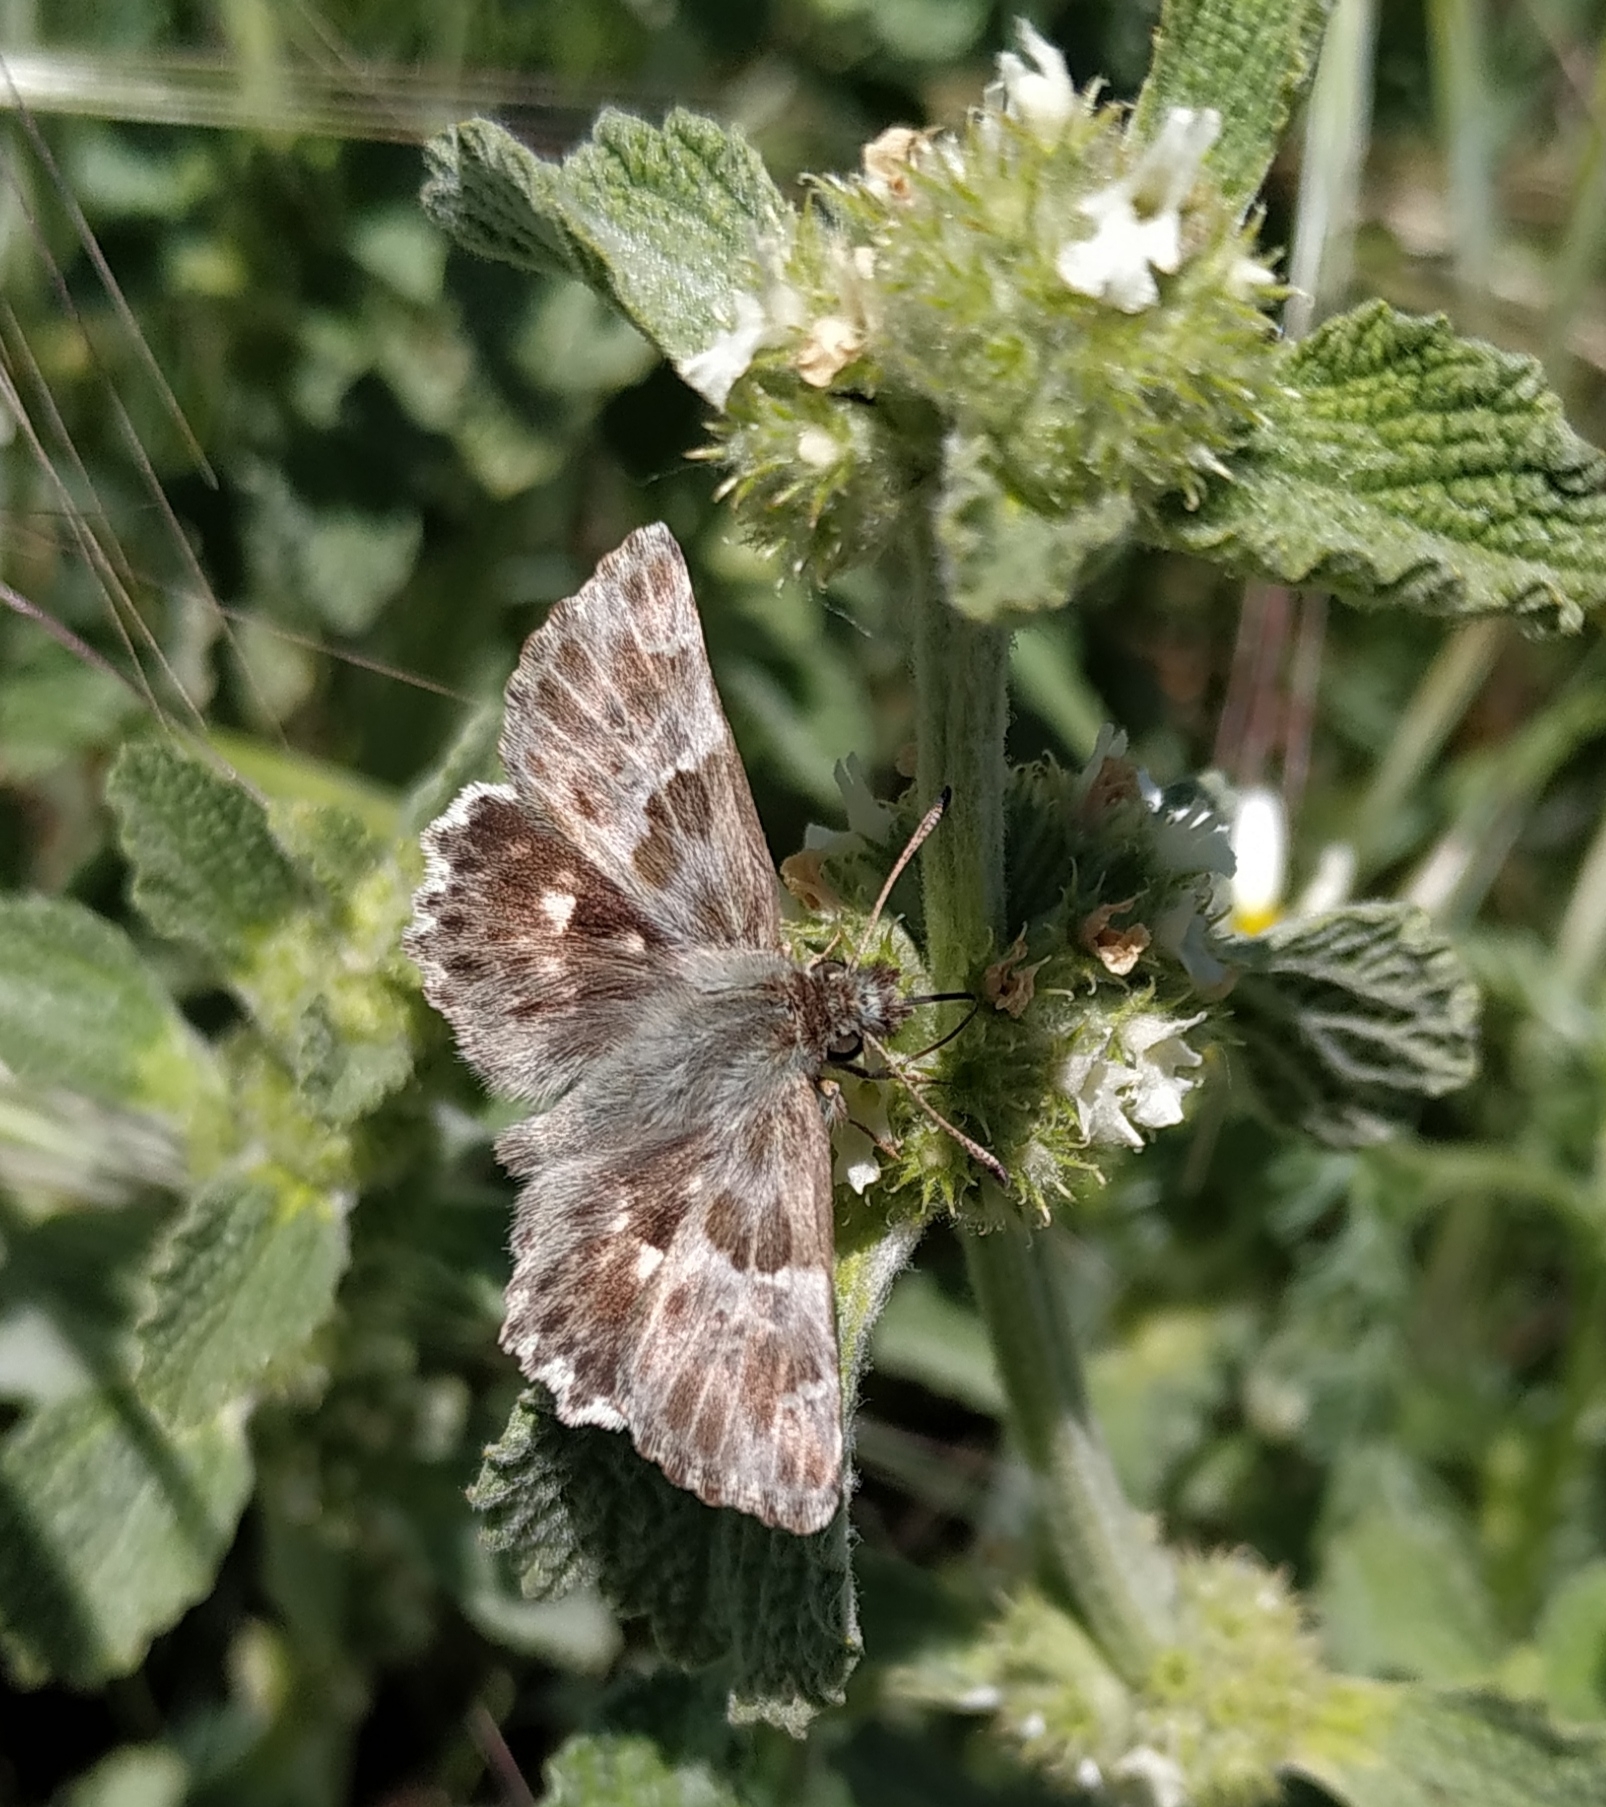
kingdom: Animalia
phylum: Arthropoda
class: Insecta
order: Lepidoptera
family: Hesperiidae
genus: Syrichtus
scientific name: Syrichtus Muschampia baeticus
